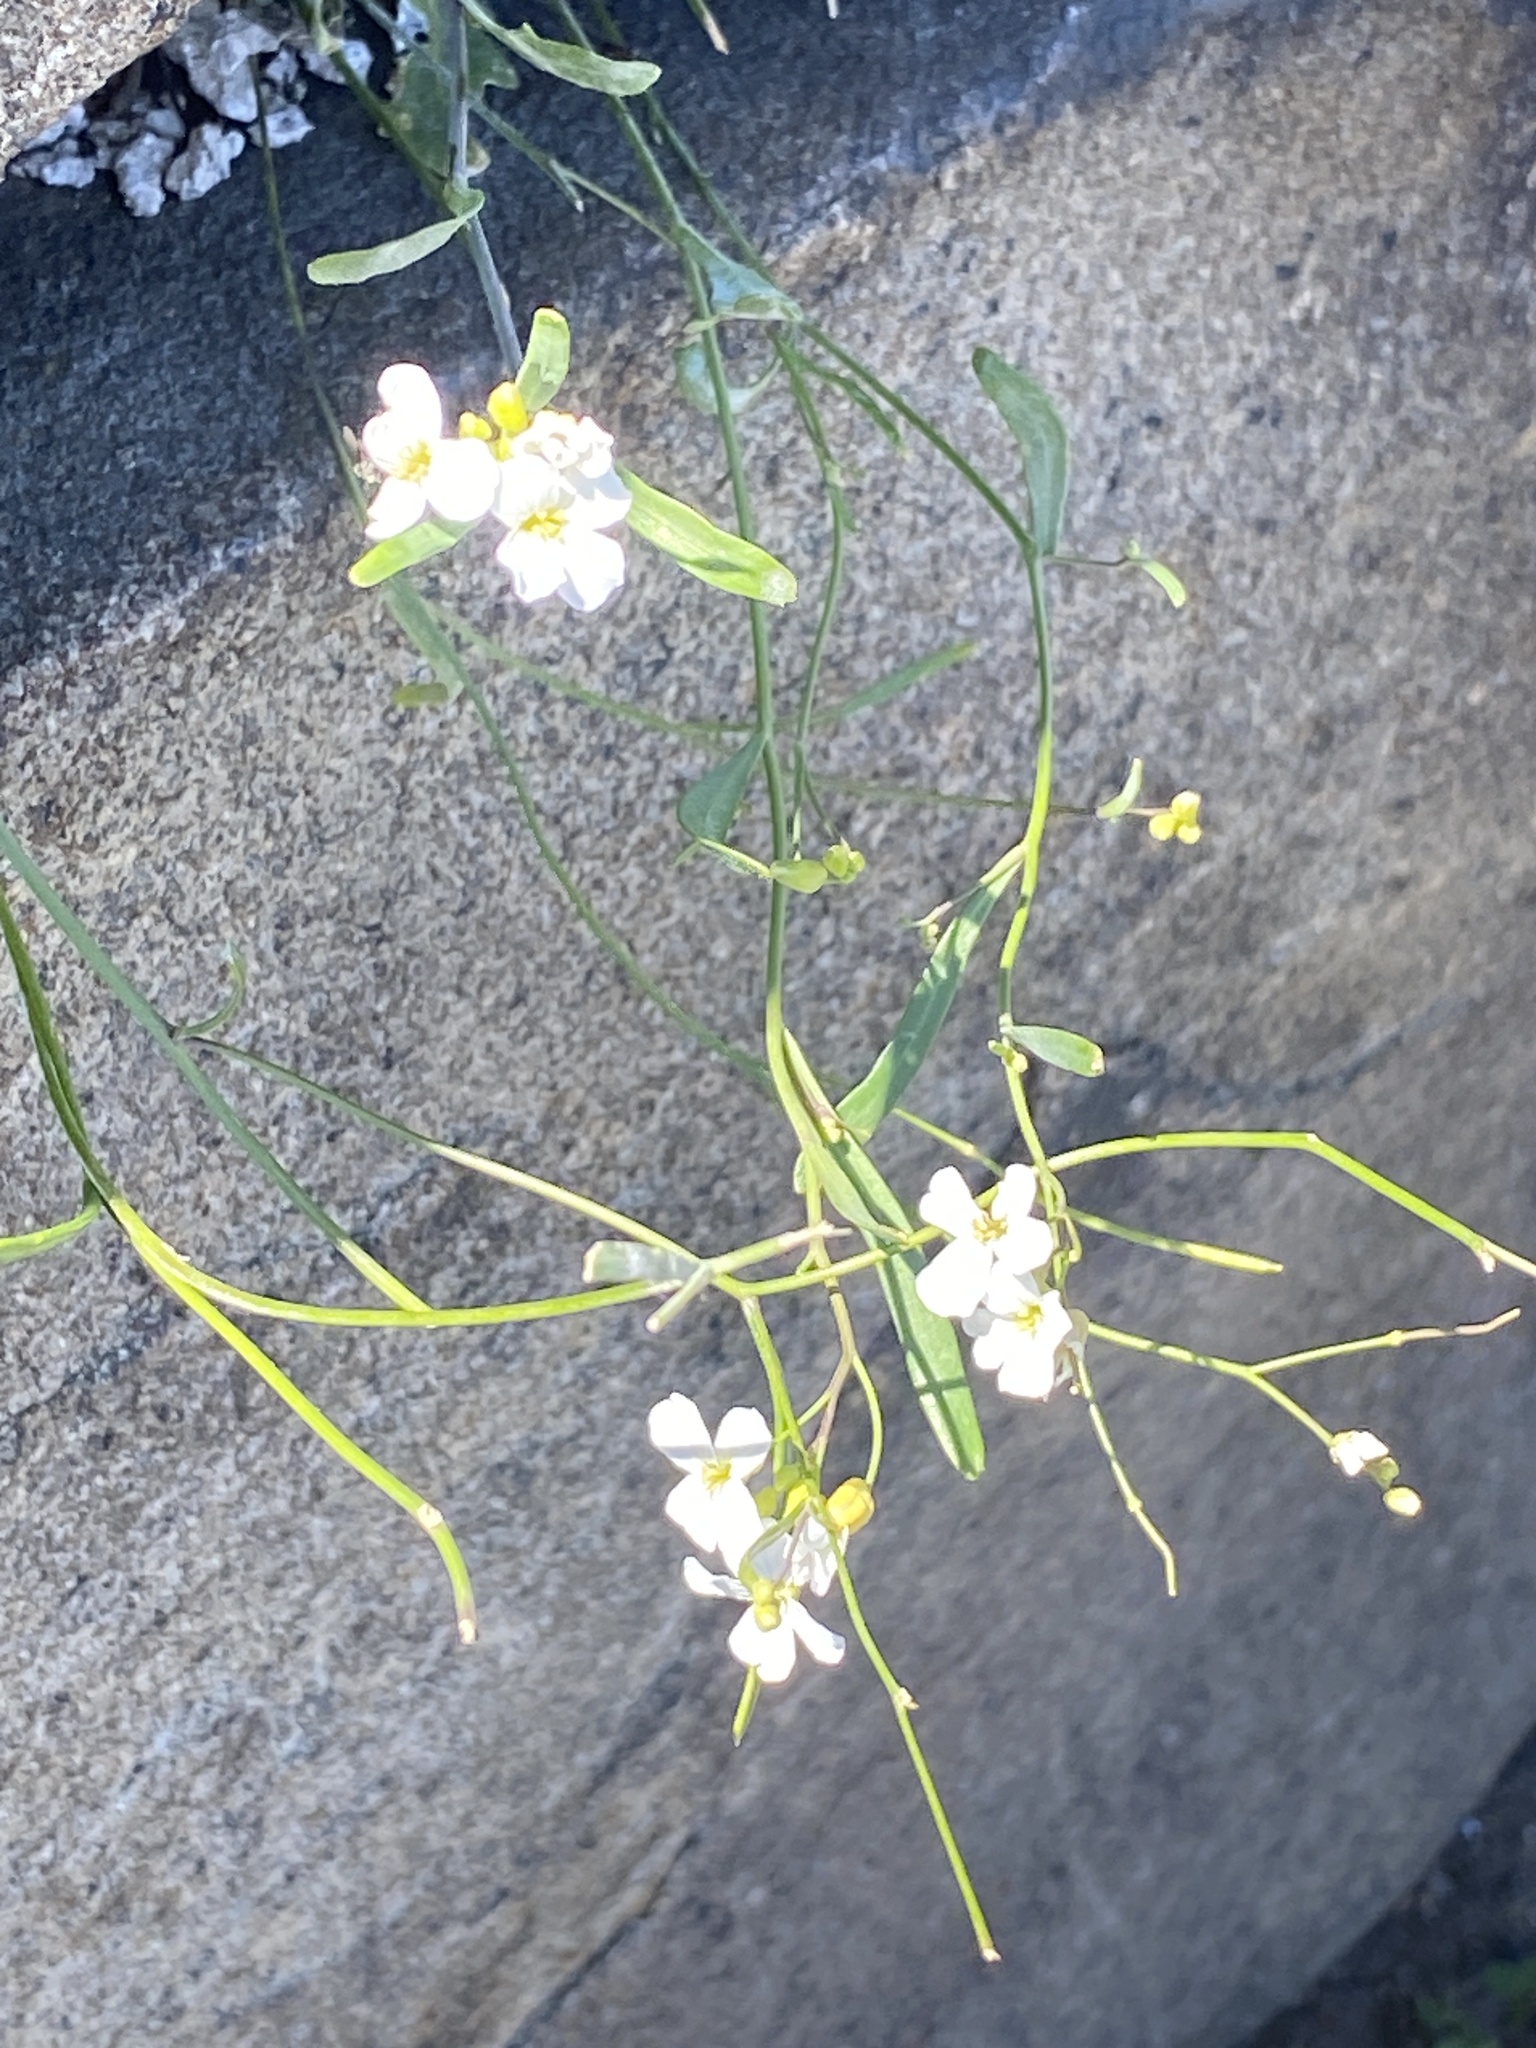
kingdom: Plantae
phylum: Tracheophyta
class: Magnoliopsida
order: Brassicales
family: Brassicaceae
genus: Arabidopsis
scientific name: Arabidopsis lyrata
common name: Lyrate rockcress
